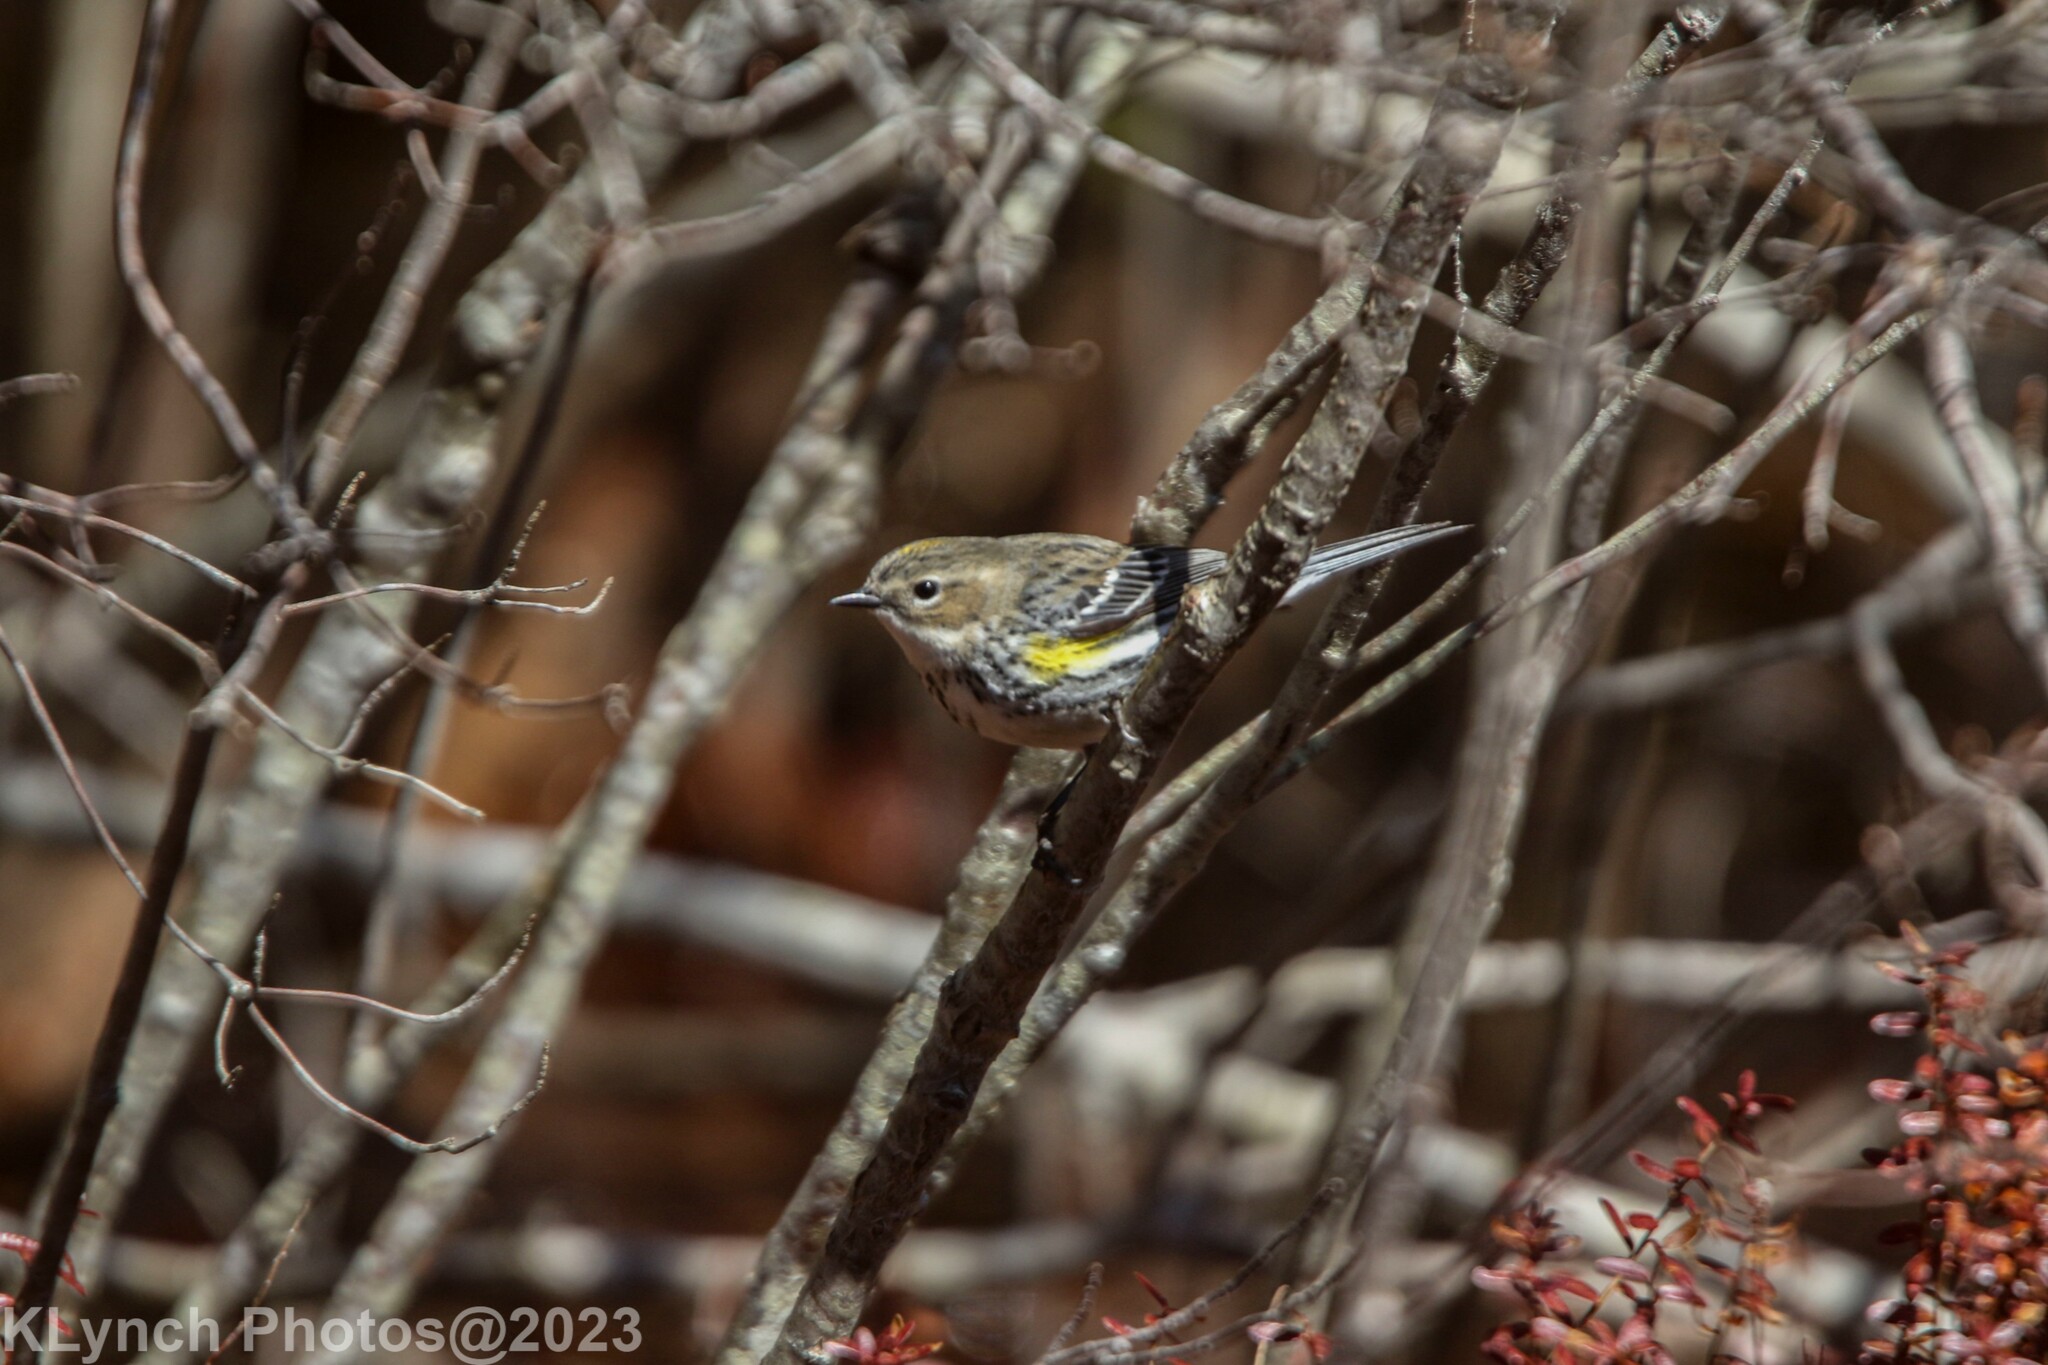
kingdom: Animalia
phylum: Chordata
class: Aves
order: Passeriformes
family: Parulidae
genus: Setophaga
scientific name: Setophaga coronata
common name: Myrtle warbler
